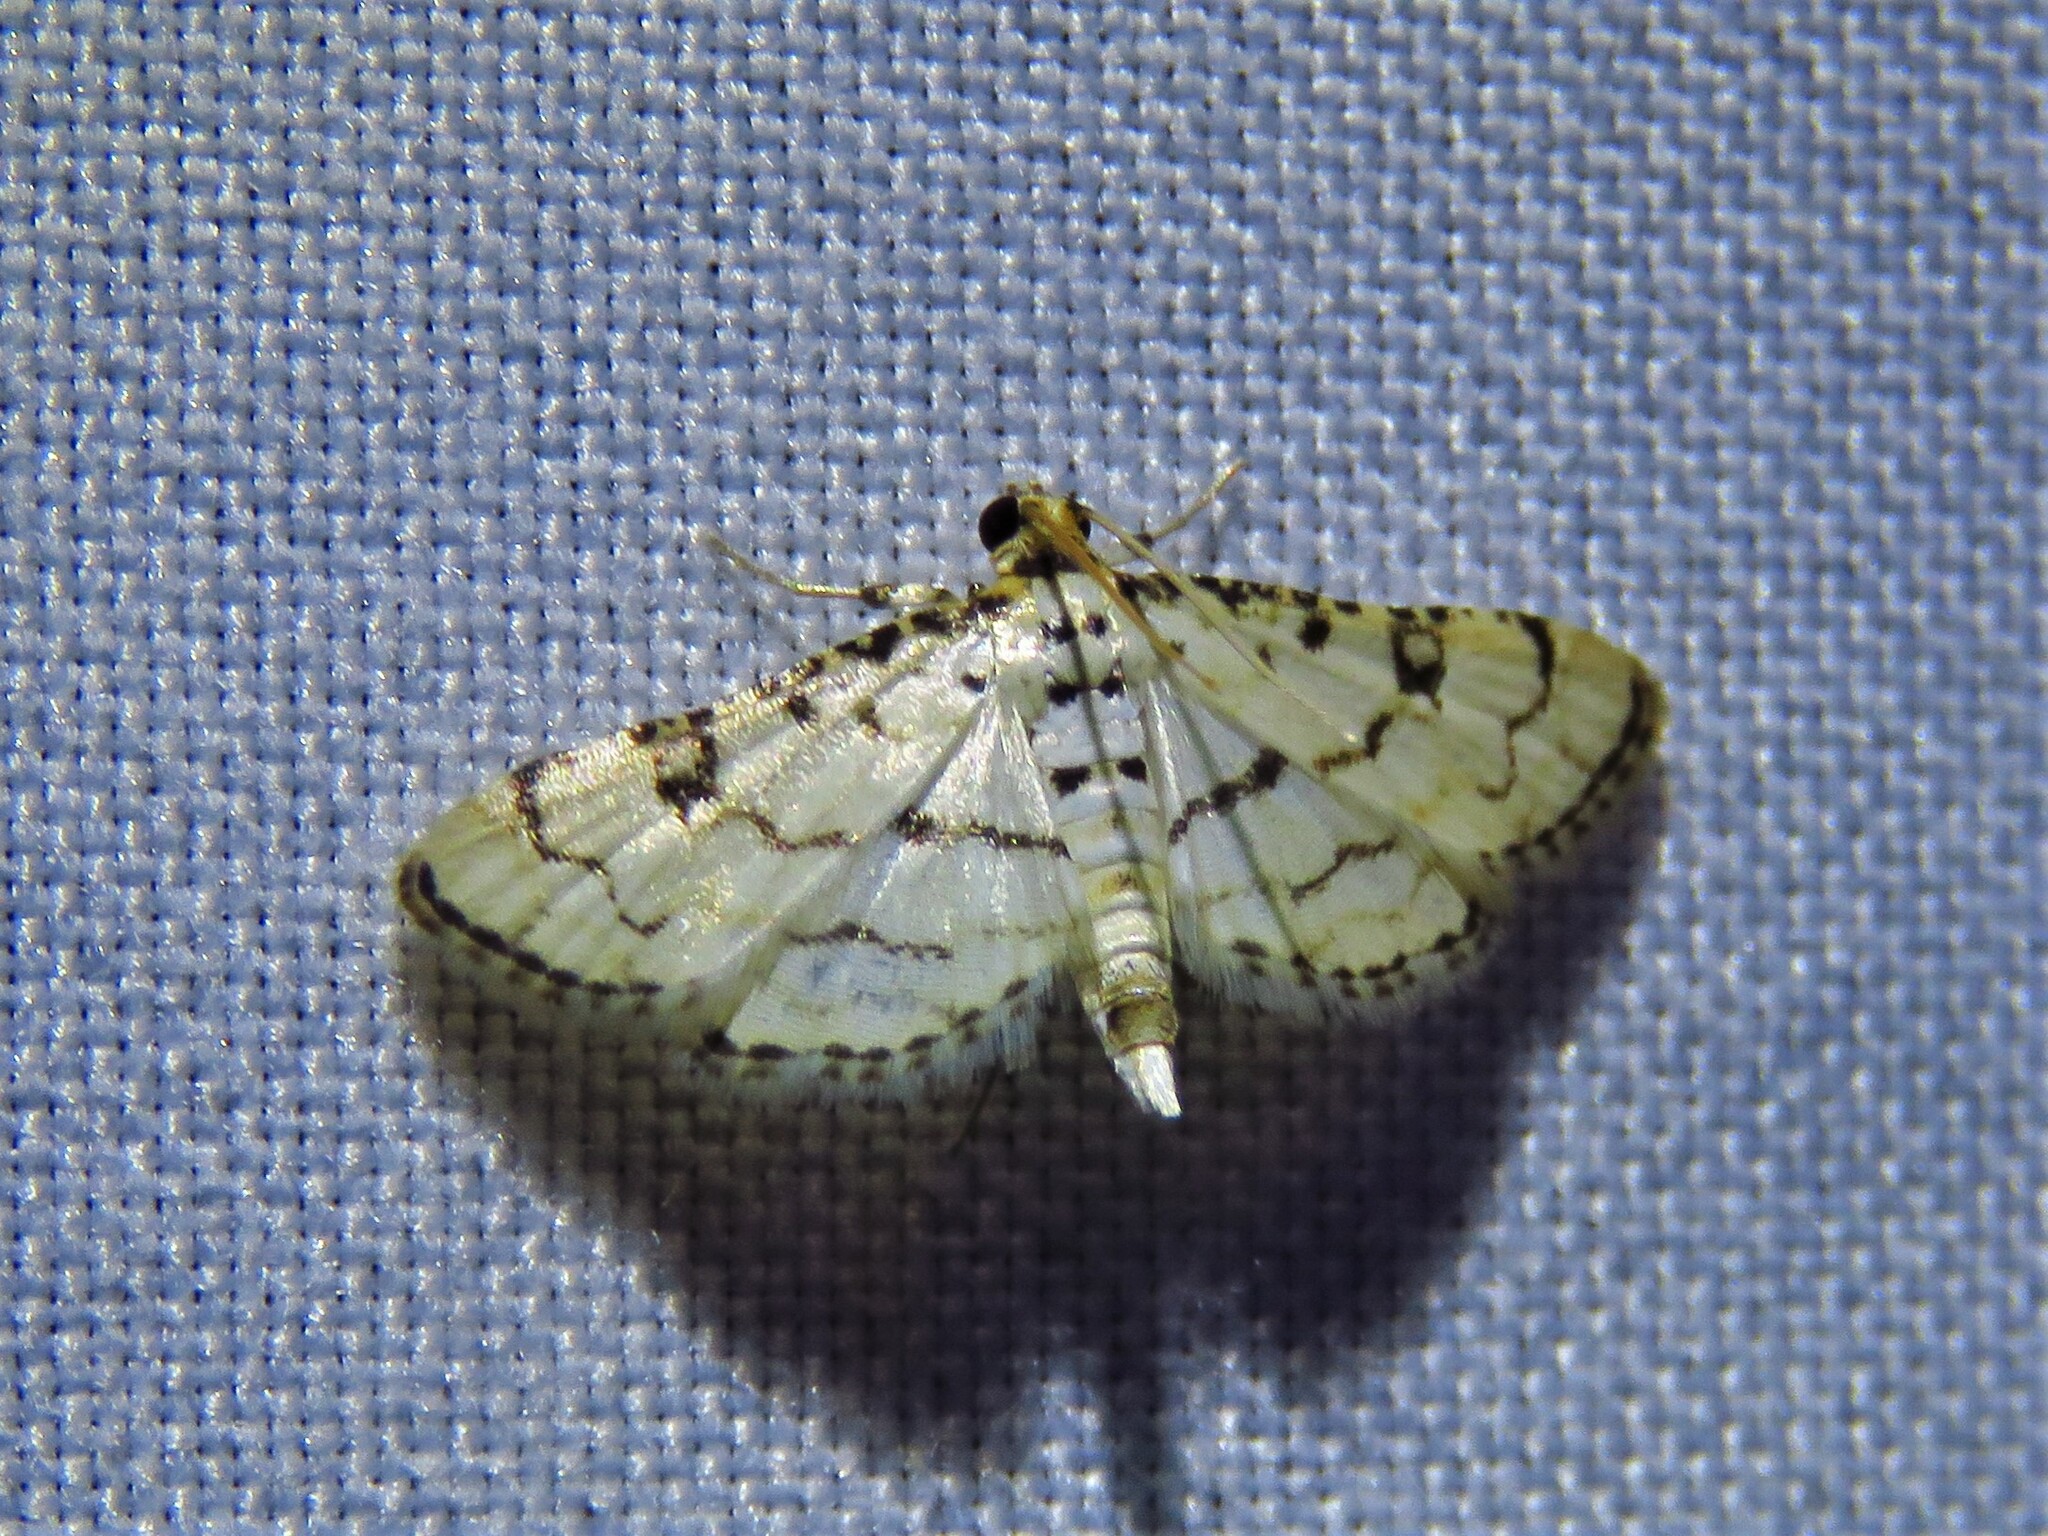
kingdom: Animalia
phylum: Arthropoda
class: Insecta
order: Lepidoptera
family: Crambidae
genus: Hileithia
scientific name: Hileithia rehamalis
